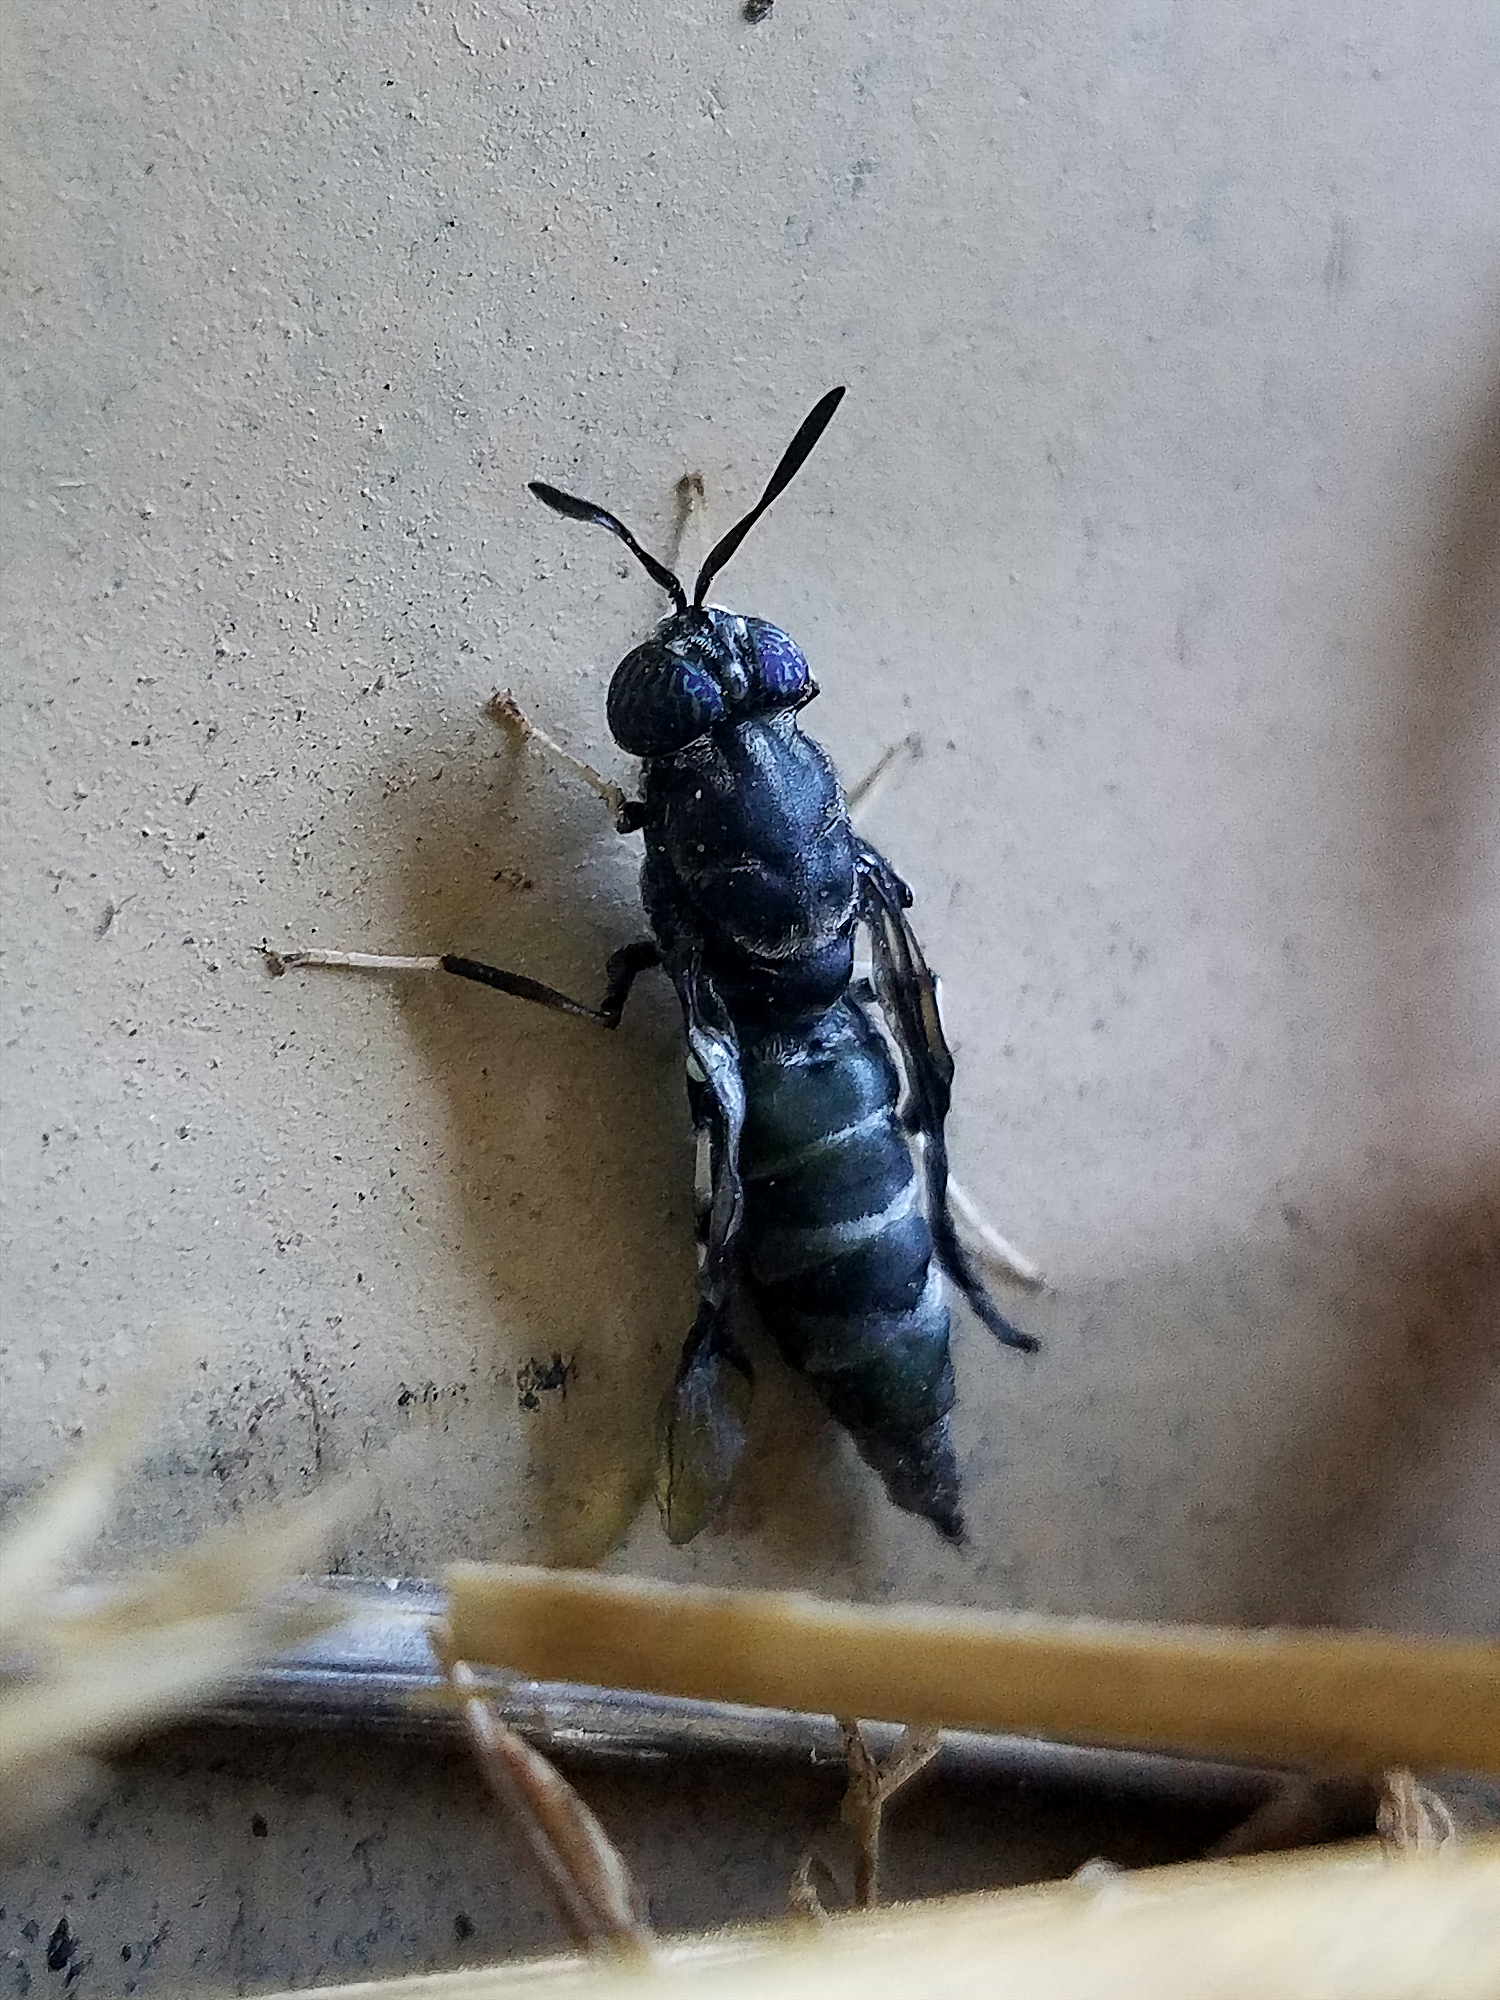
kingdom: Animalia
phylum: Arthropoda
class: Insecta
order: Diptera
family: Stratiomyidae
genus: Hermetia
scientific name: Hermetia illucens
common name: Black soldier fly
